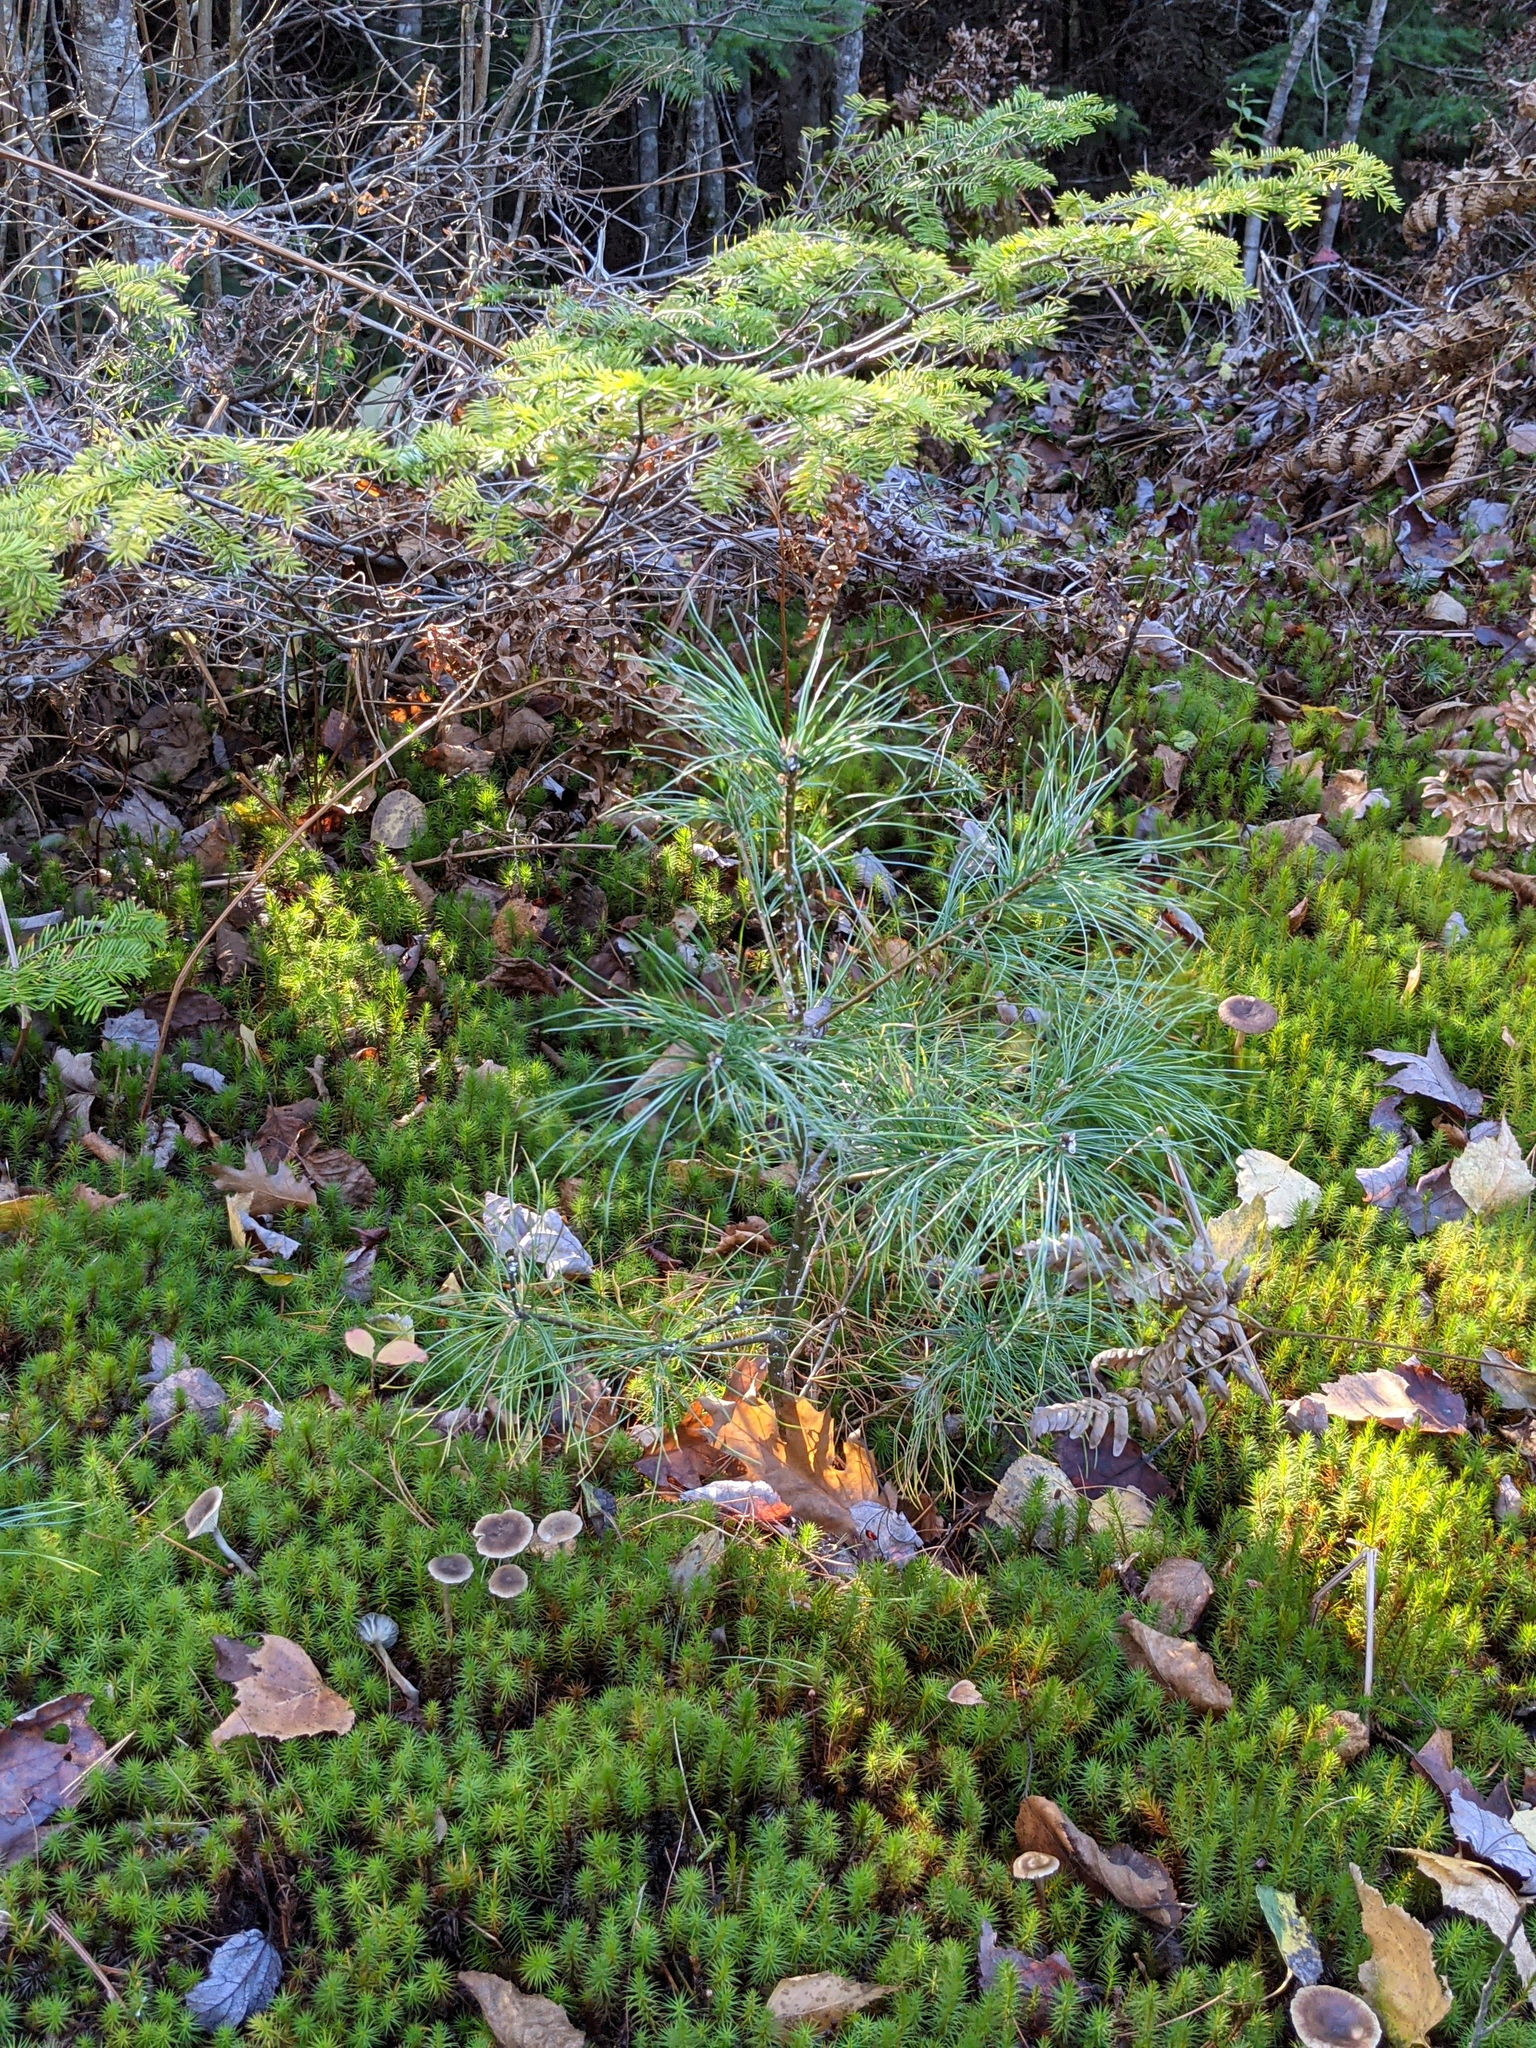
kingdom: Plantae
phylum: Tracheophyta
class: Pinopsida
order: Pinales
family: Pinaceae
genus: Pinus
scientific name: Pinus strobus
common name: Weymouth pine
